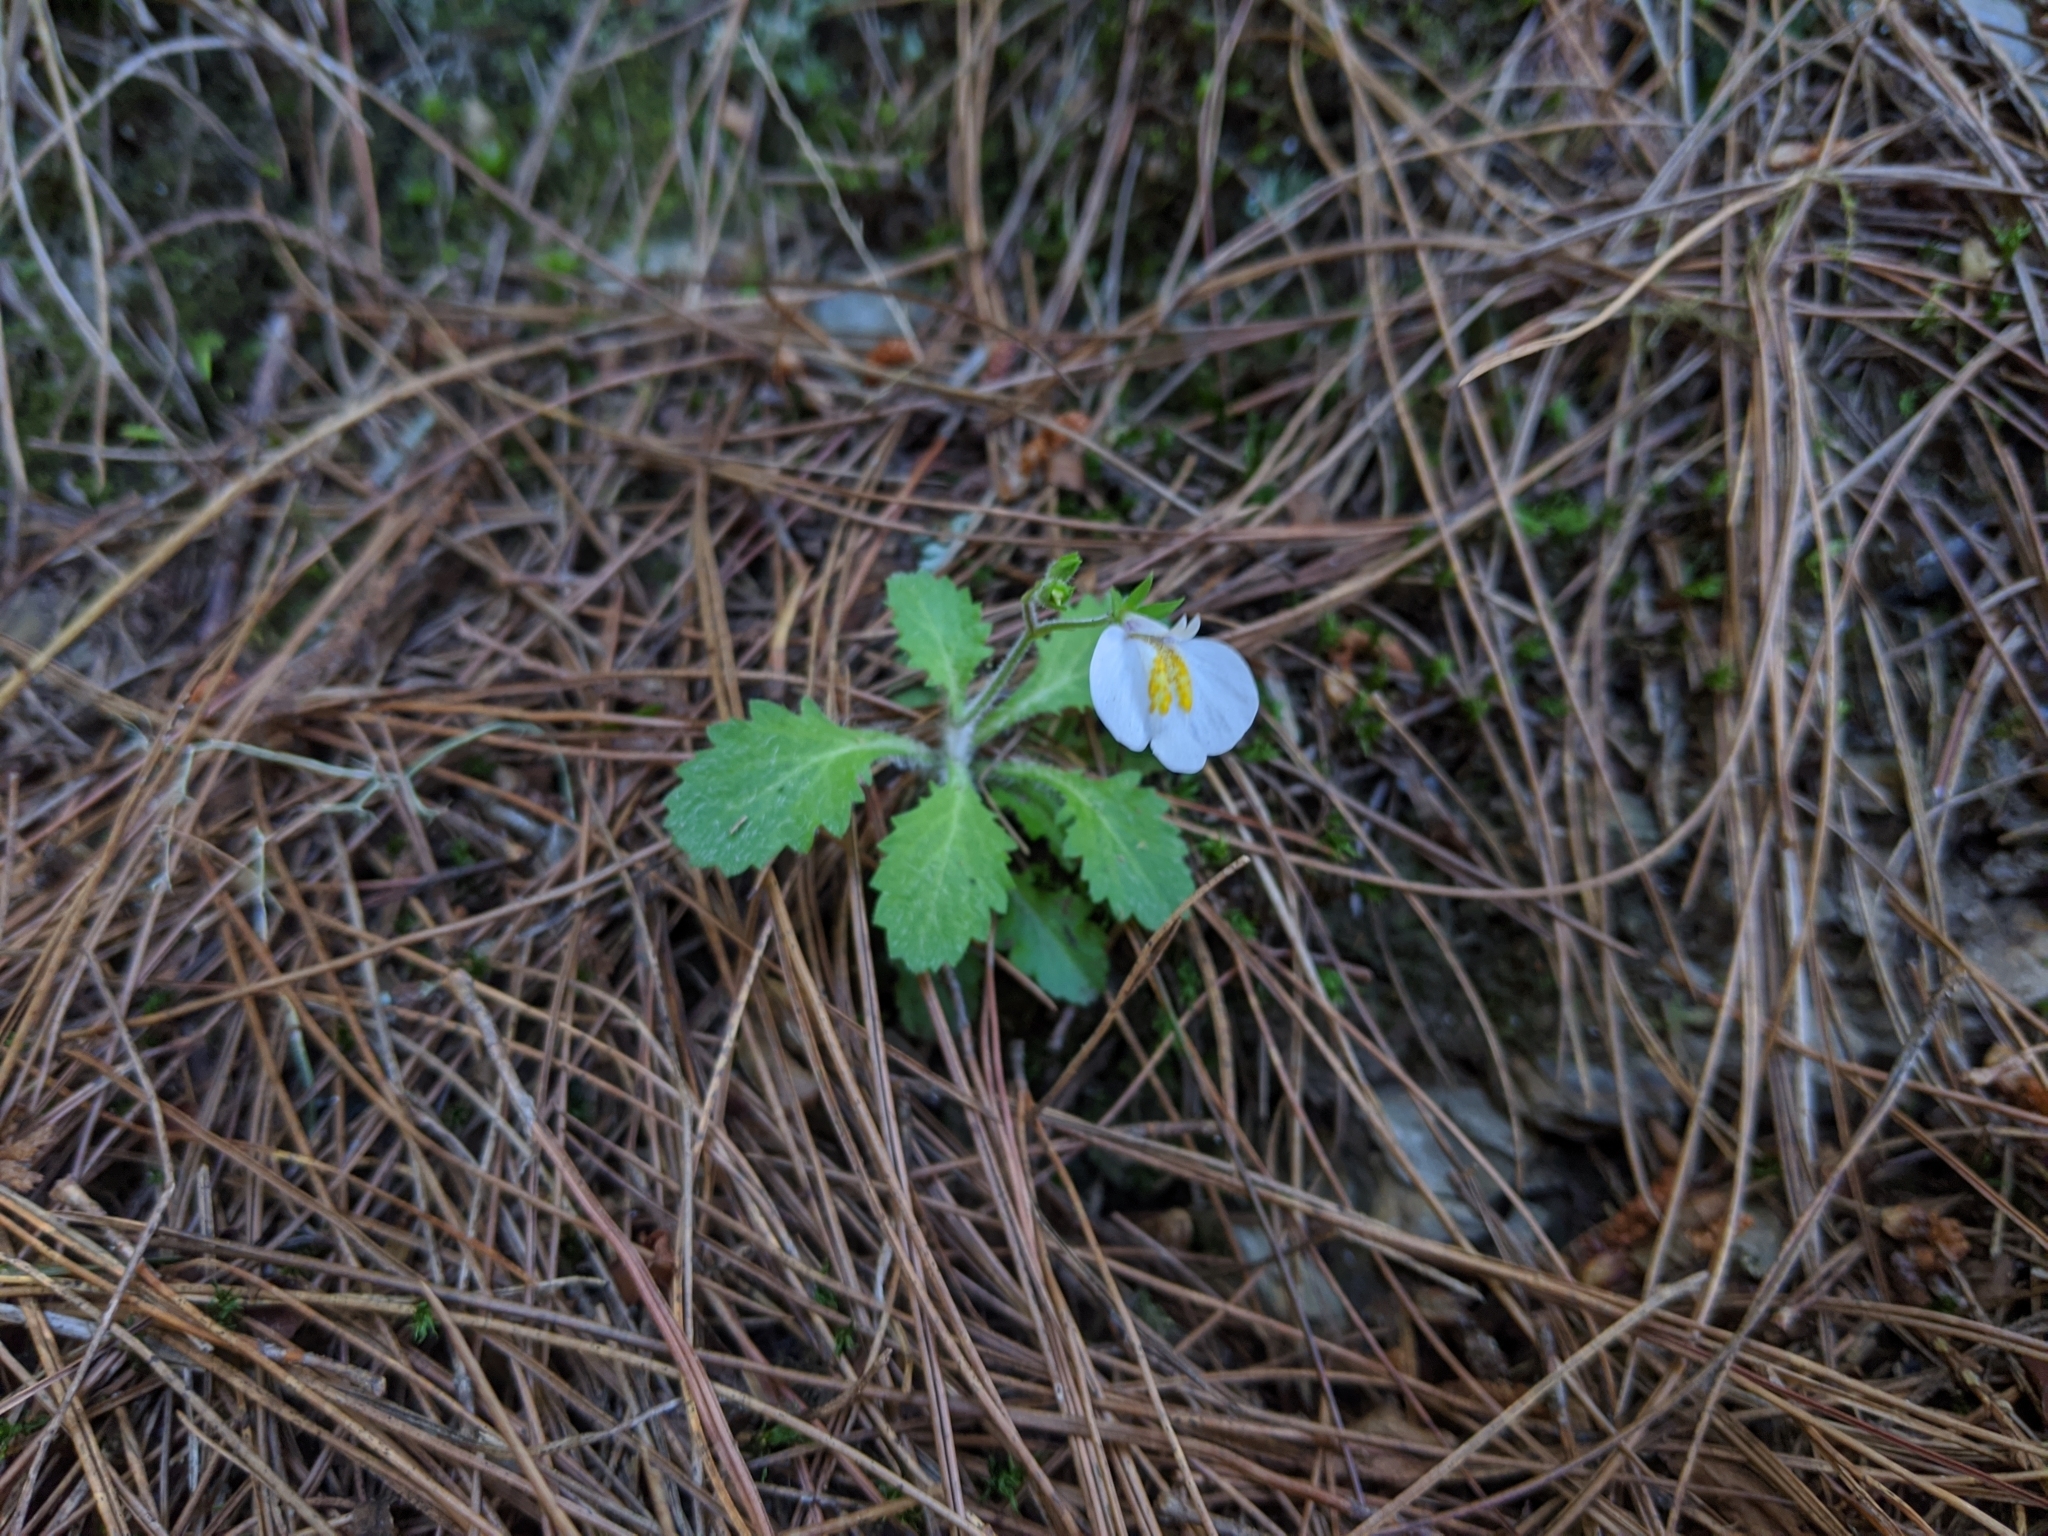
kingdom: Plantae
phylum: Tracheophyta
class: Magnoliopsida
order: Lamiales
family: Mazaceae
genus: Mazus
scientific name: Mazus alpinus
